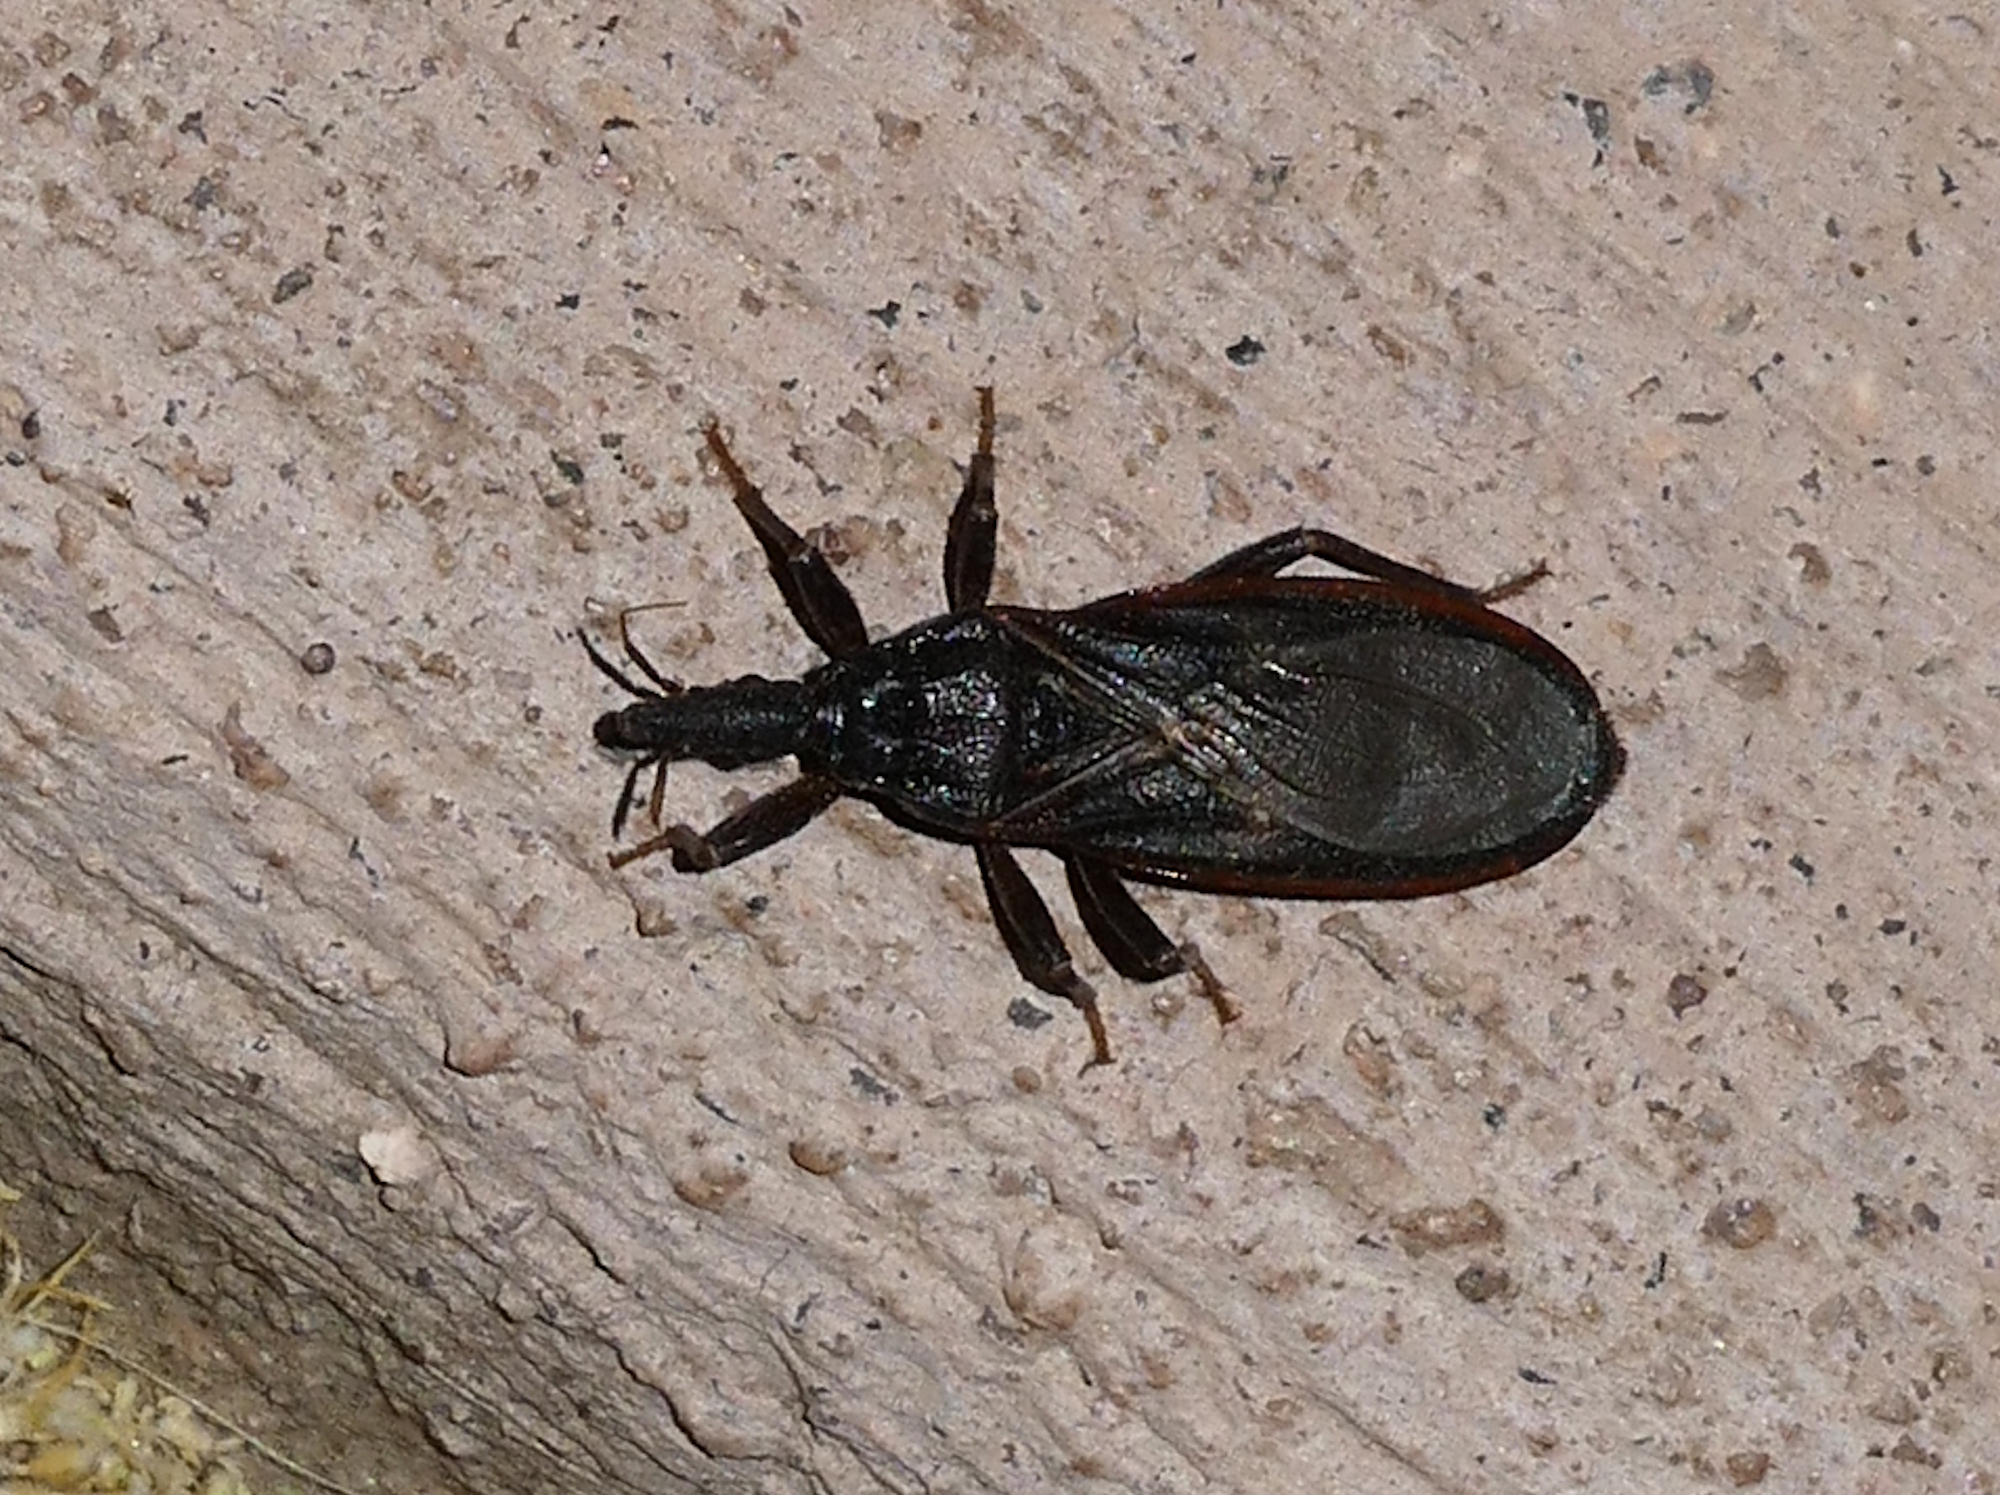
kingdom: Animalia
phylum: Arthropoda
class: Insecta
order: Hemiptera
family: Reduviidae
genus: Triatoma
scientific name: Triatoma protracta
